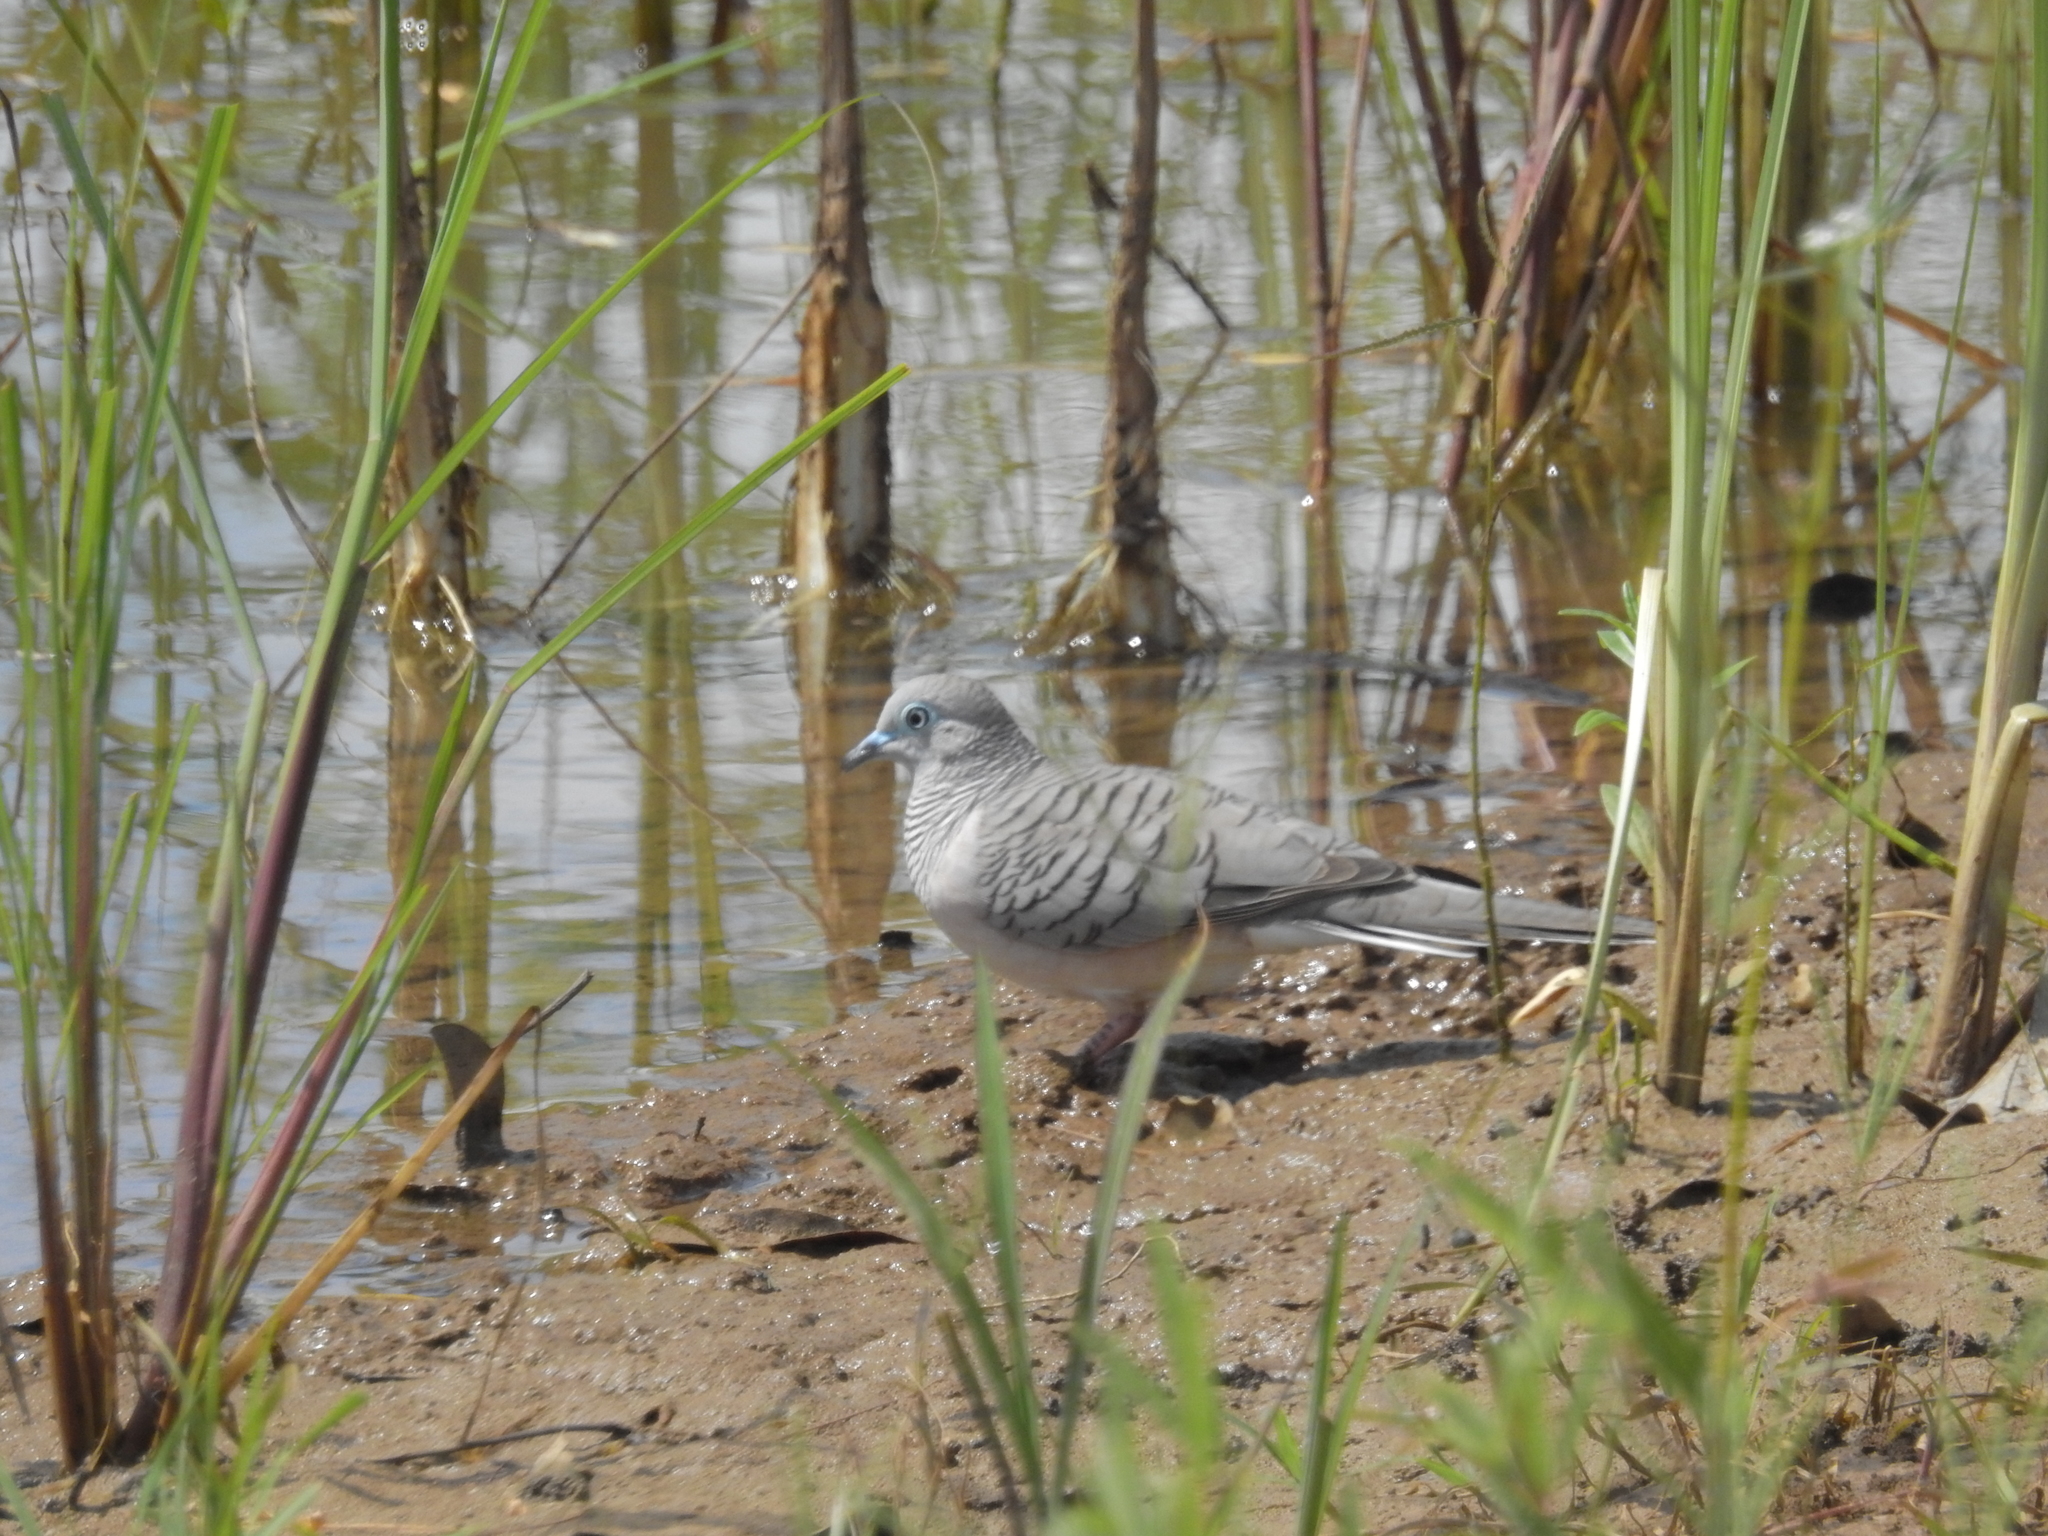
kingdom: Animalia
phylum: Chordata
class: Aves
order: Columbiformes
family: Columbidae
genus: Geopelia
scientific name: Geopelia placida
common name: Peaceful dove
